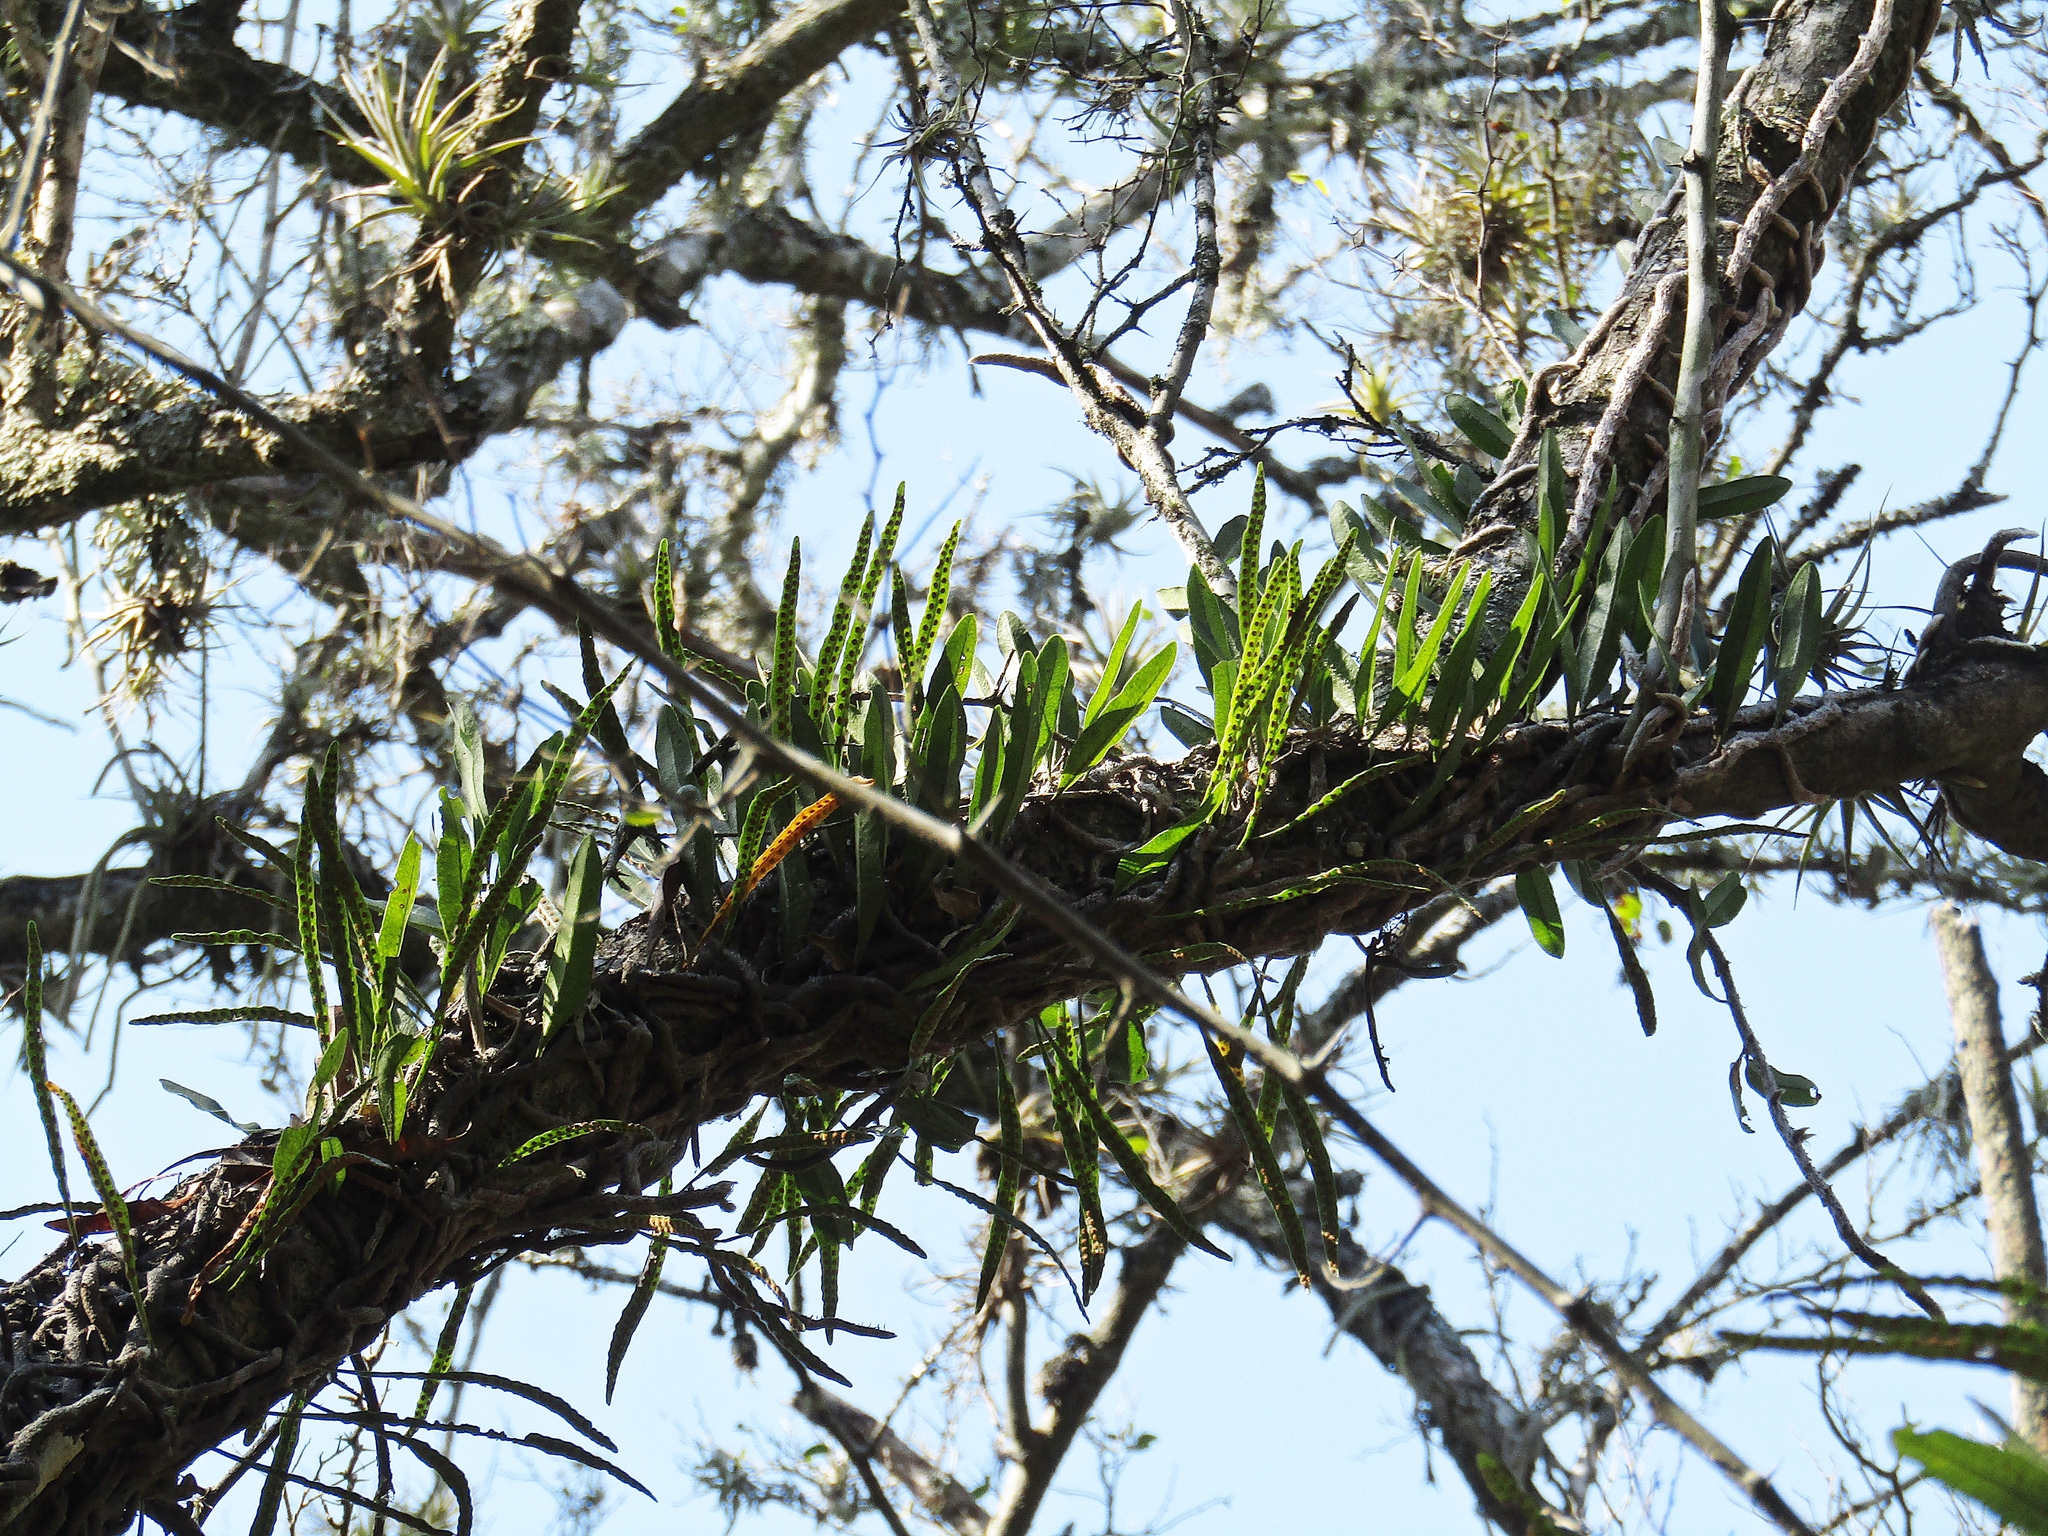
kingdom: Plantae
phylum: Tracheophyta
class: Polypodiopsida
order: Polypodiales
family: Polypodiaceae
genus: Microgramma
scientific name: Microgramma mortoniana
